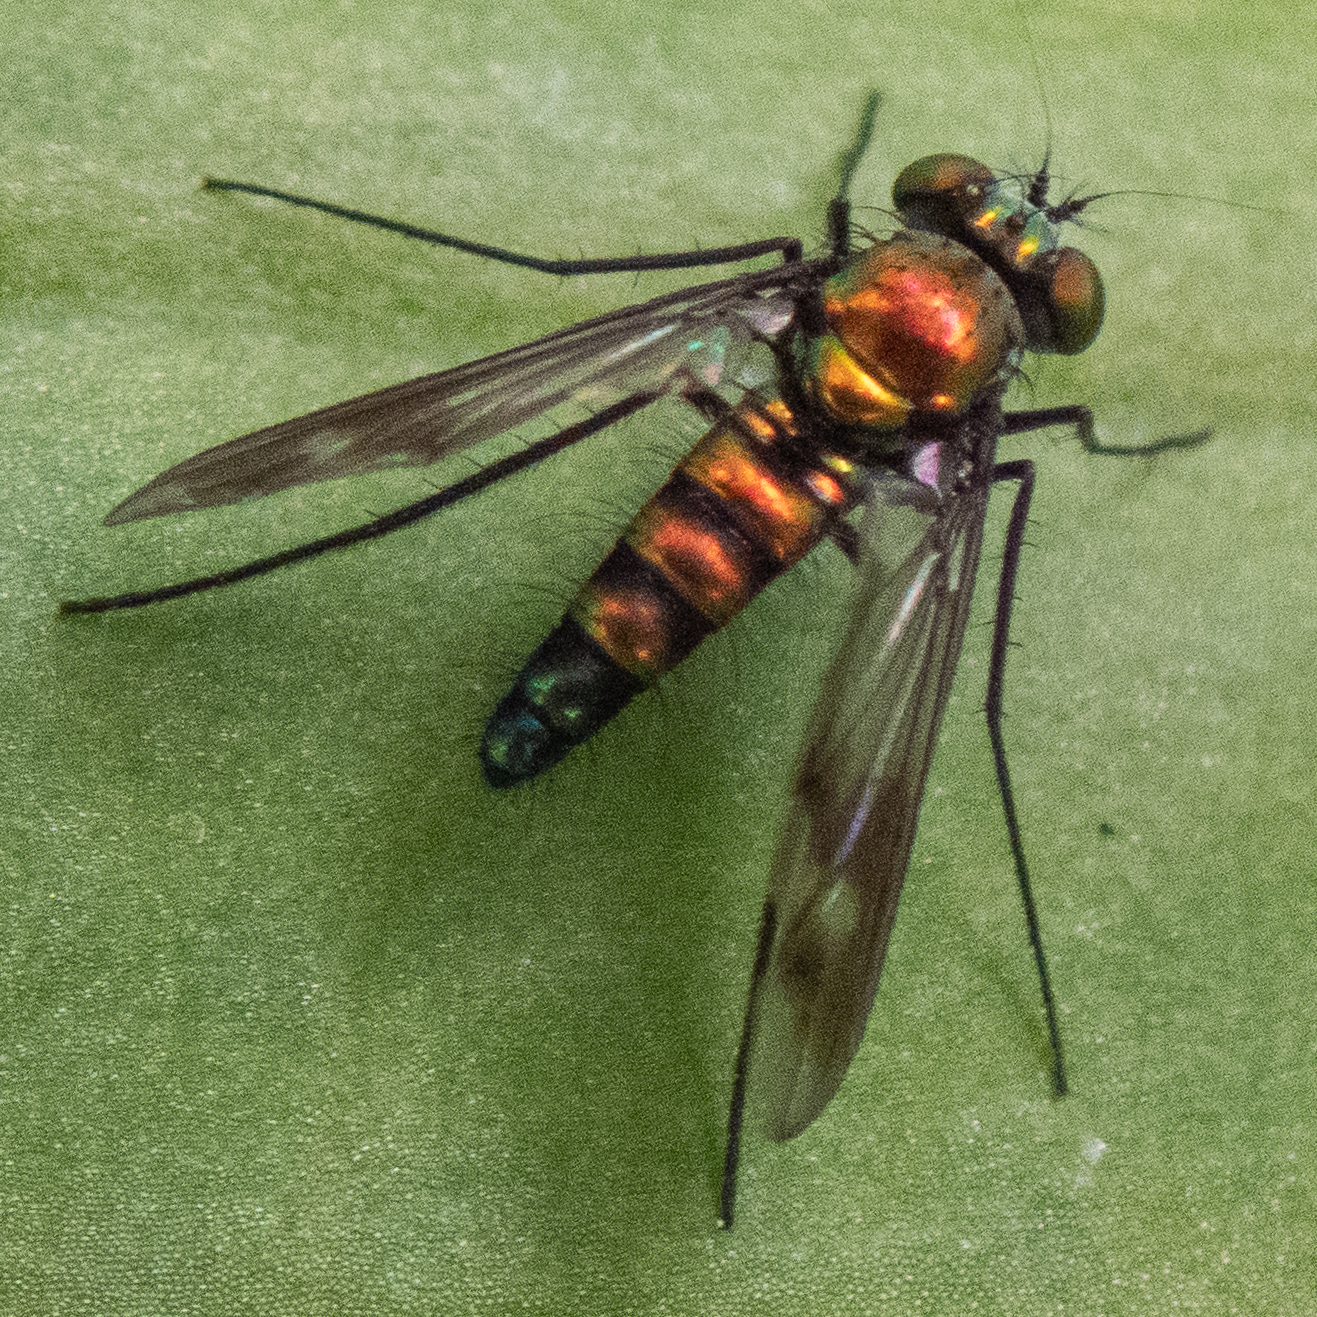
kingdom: Animalia
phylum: Arthropoda
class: Insecta
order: Diptera
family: Dolichopodidae
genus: Condylostylus
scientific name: Condylostylus patibulatus
